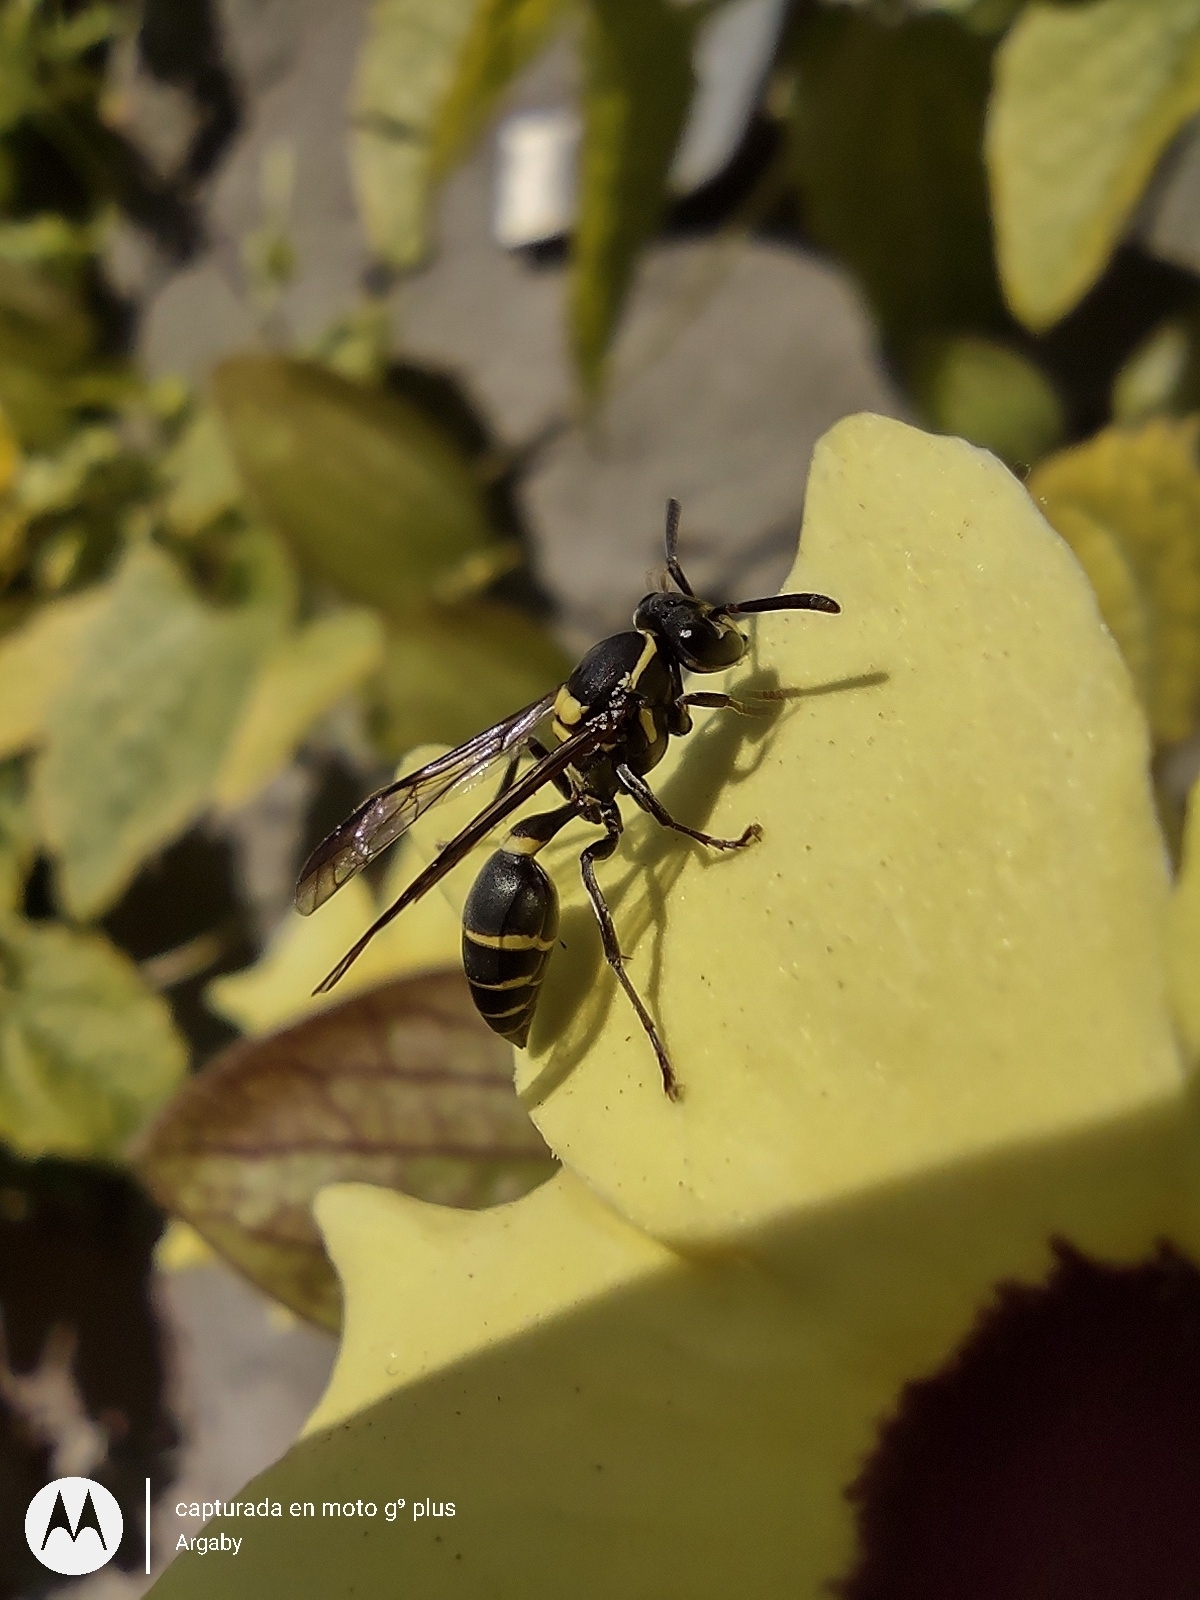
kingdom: Animalia
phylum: Arthropoda
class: Insecta
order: Hymenoptera
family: Eumenidae
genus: Polybia
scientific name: Polybia occidentalis
